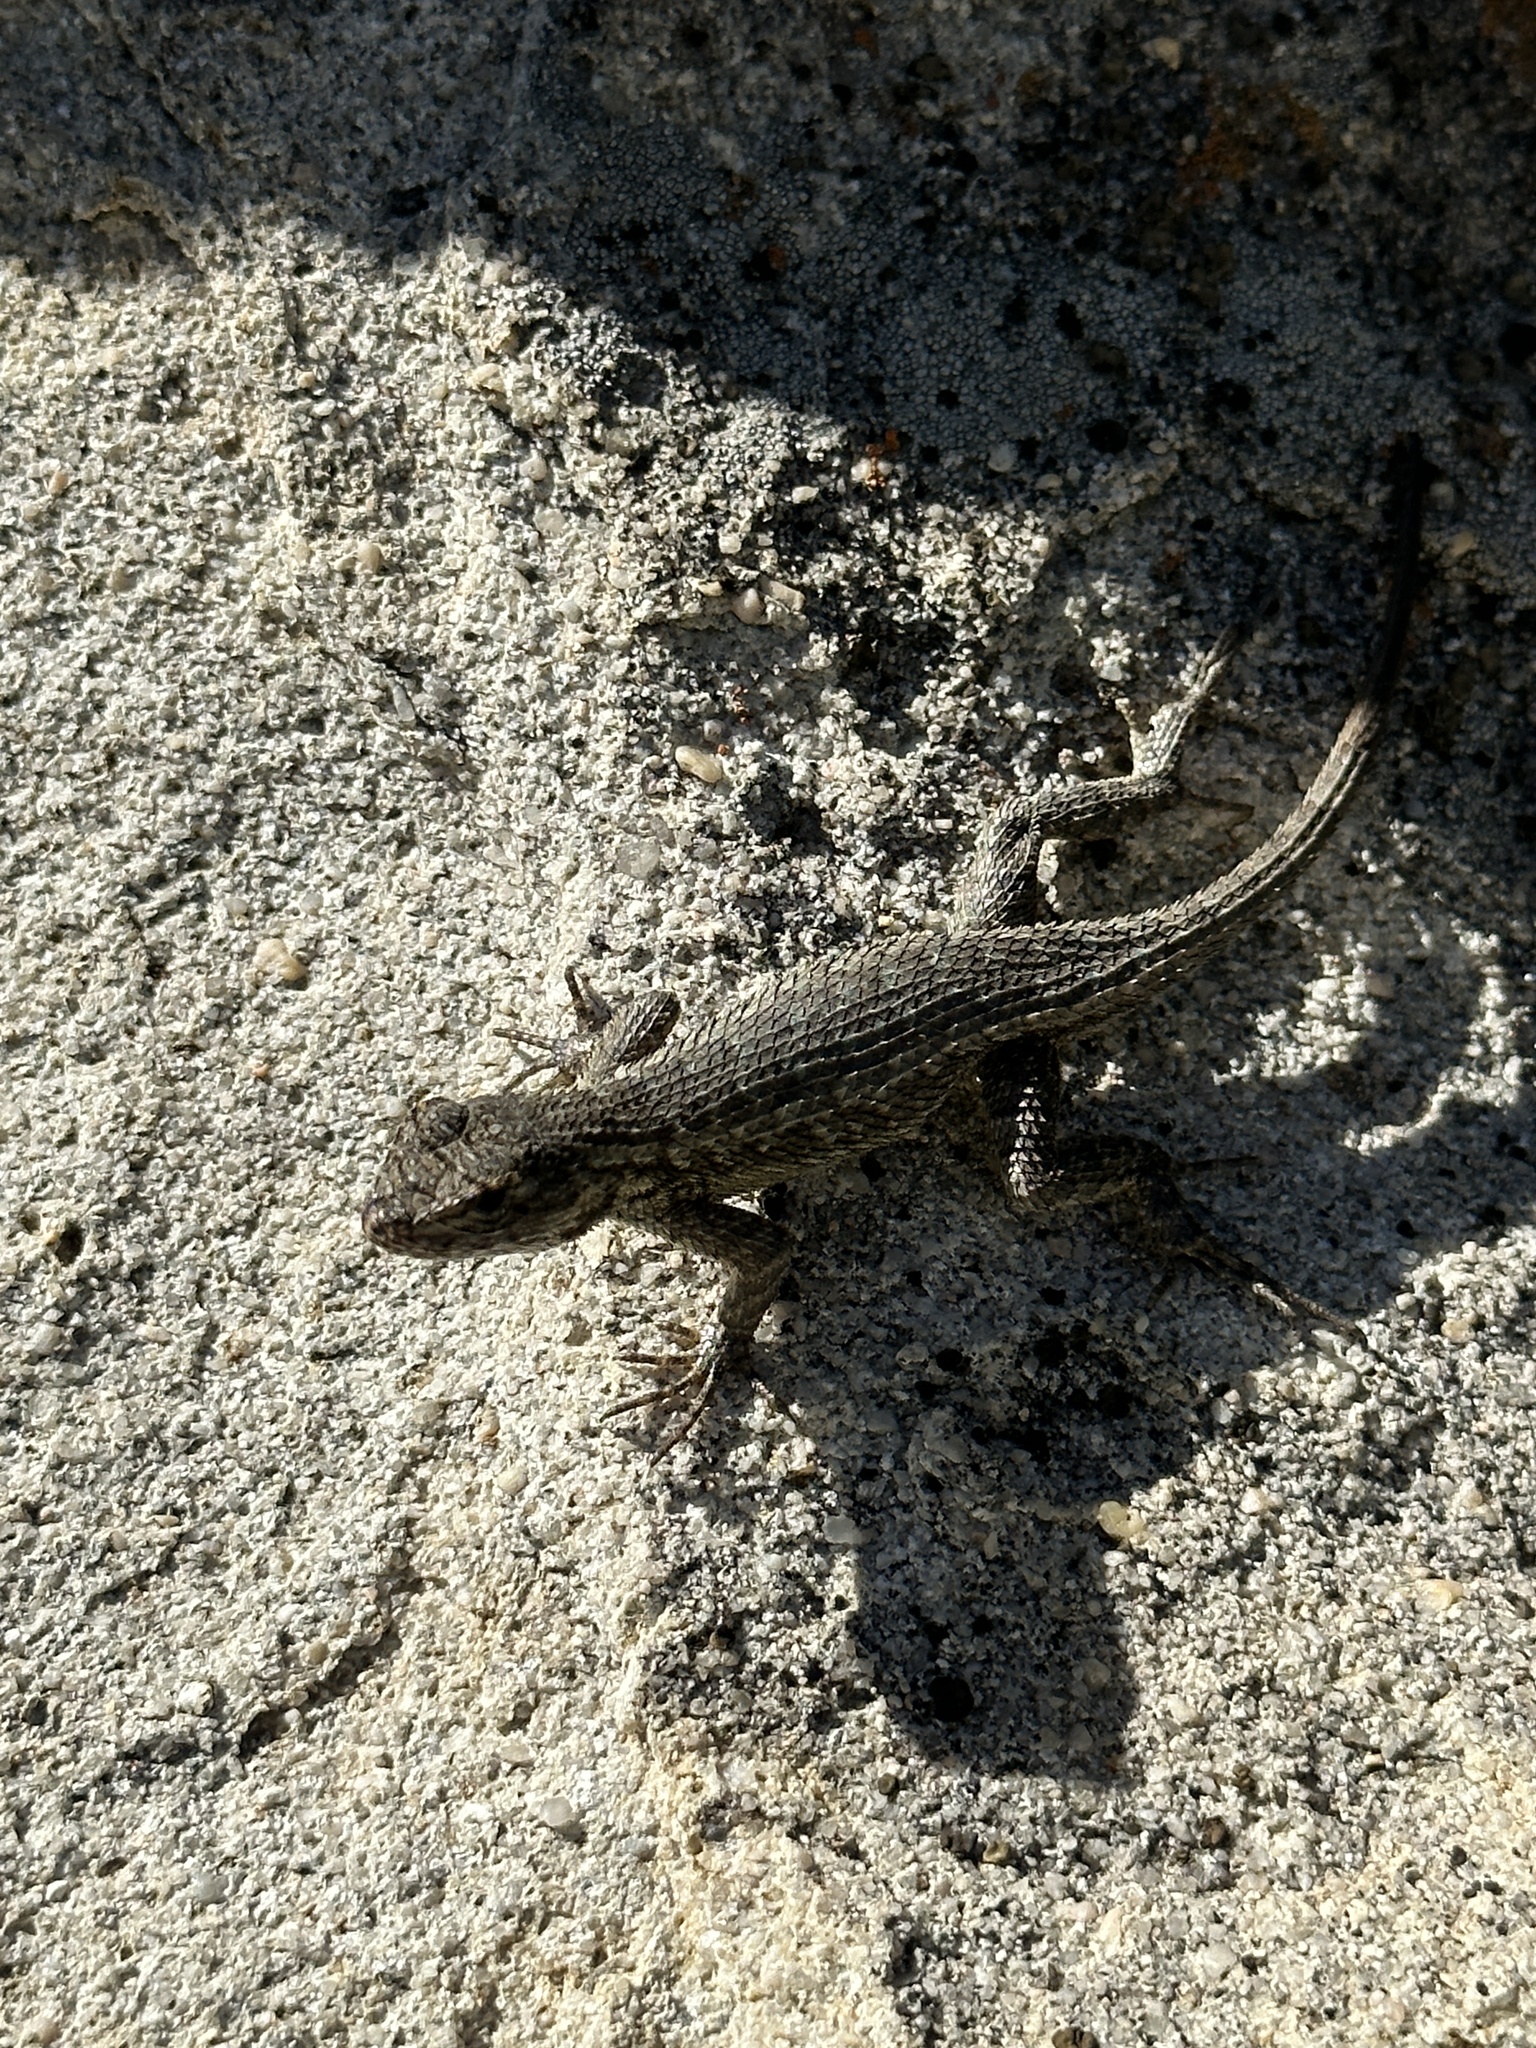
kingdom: Animalia
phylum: Chordata
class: Squamata
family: Phrynosomatidae
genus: Sceloporus
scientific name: Sceloporus occidentalis
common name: Western fence lizard
